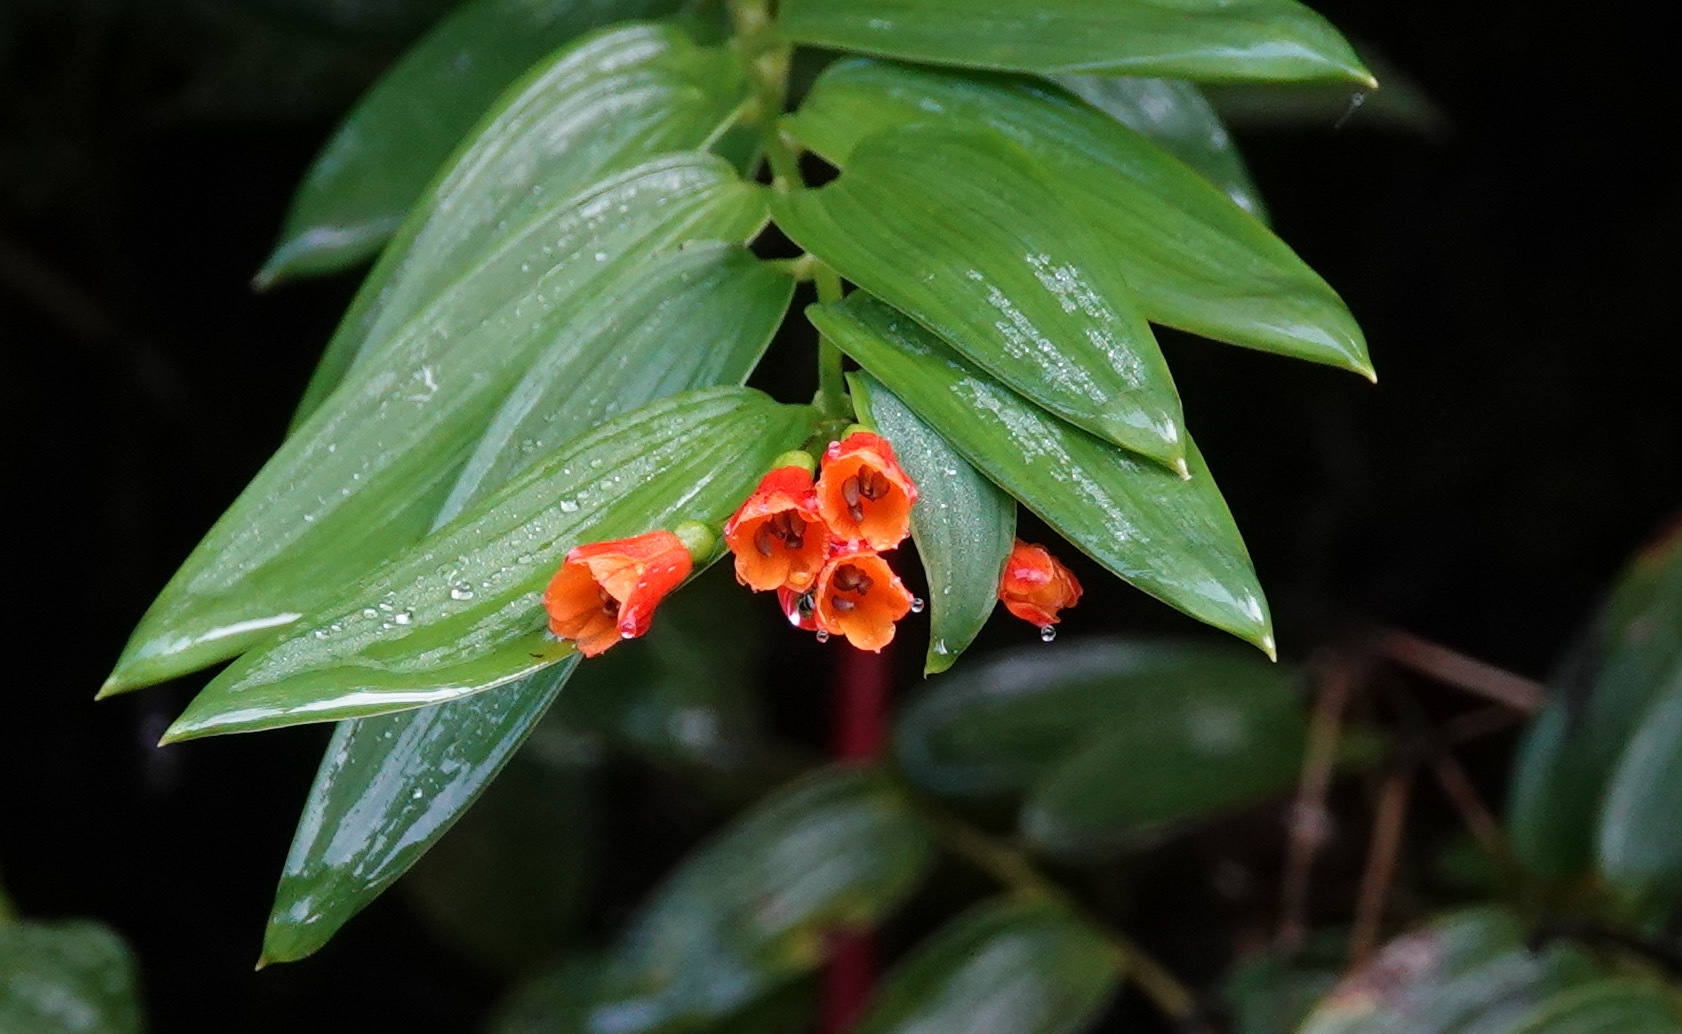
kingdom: Plantae
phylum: Tracheophyta
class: Liliopsida
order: Liliales
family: Alstroemeriaceae
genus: Bomarea
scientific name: Bomarea distichifolia
